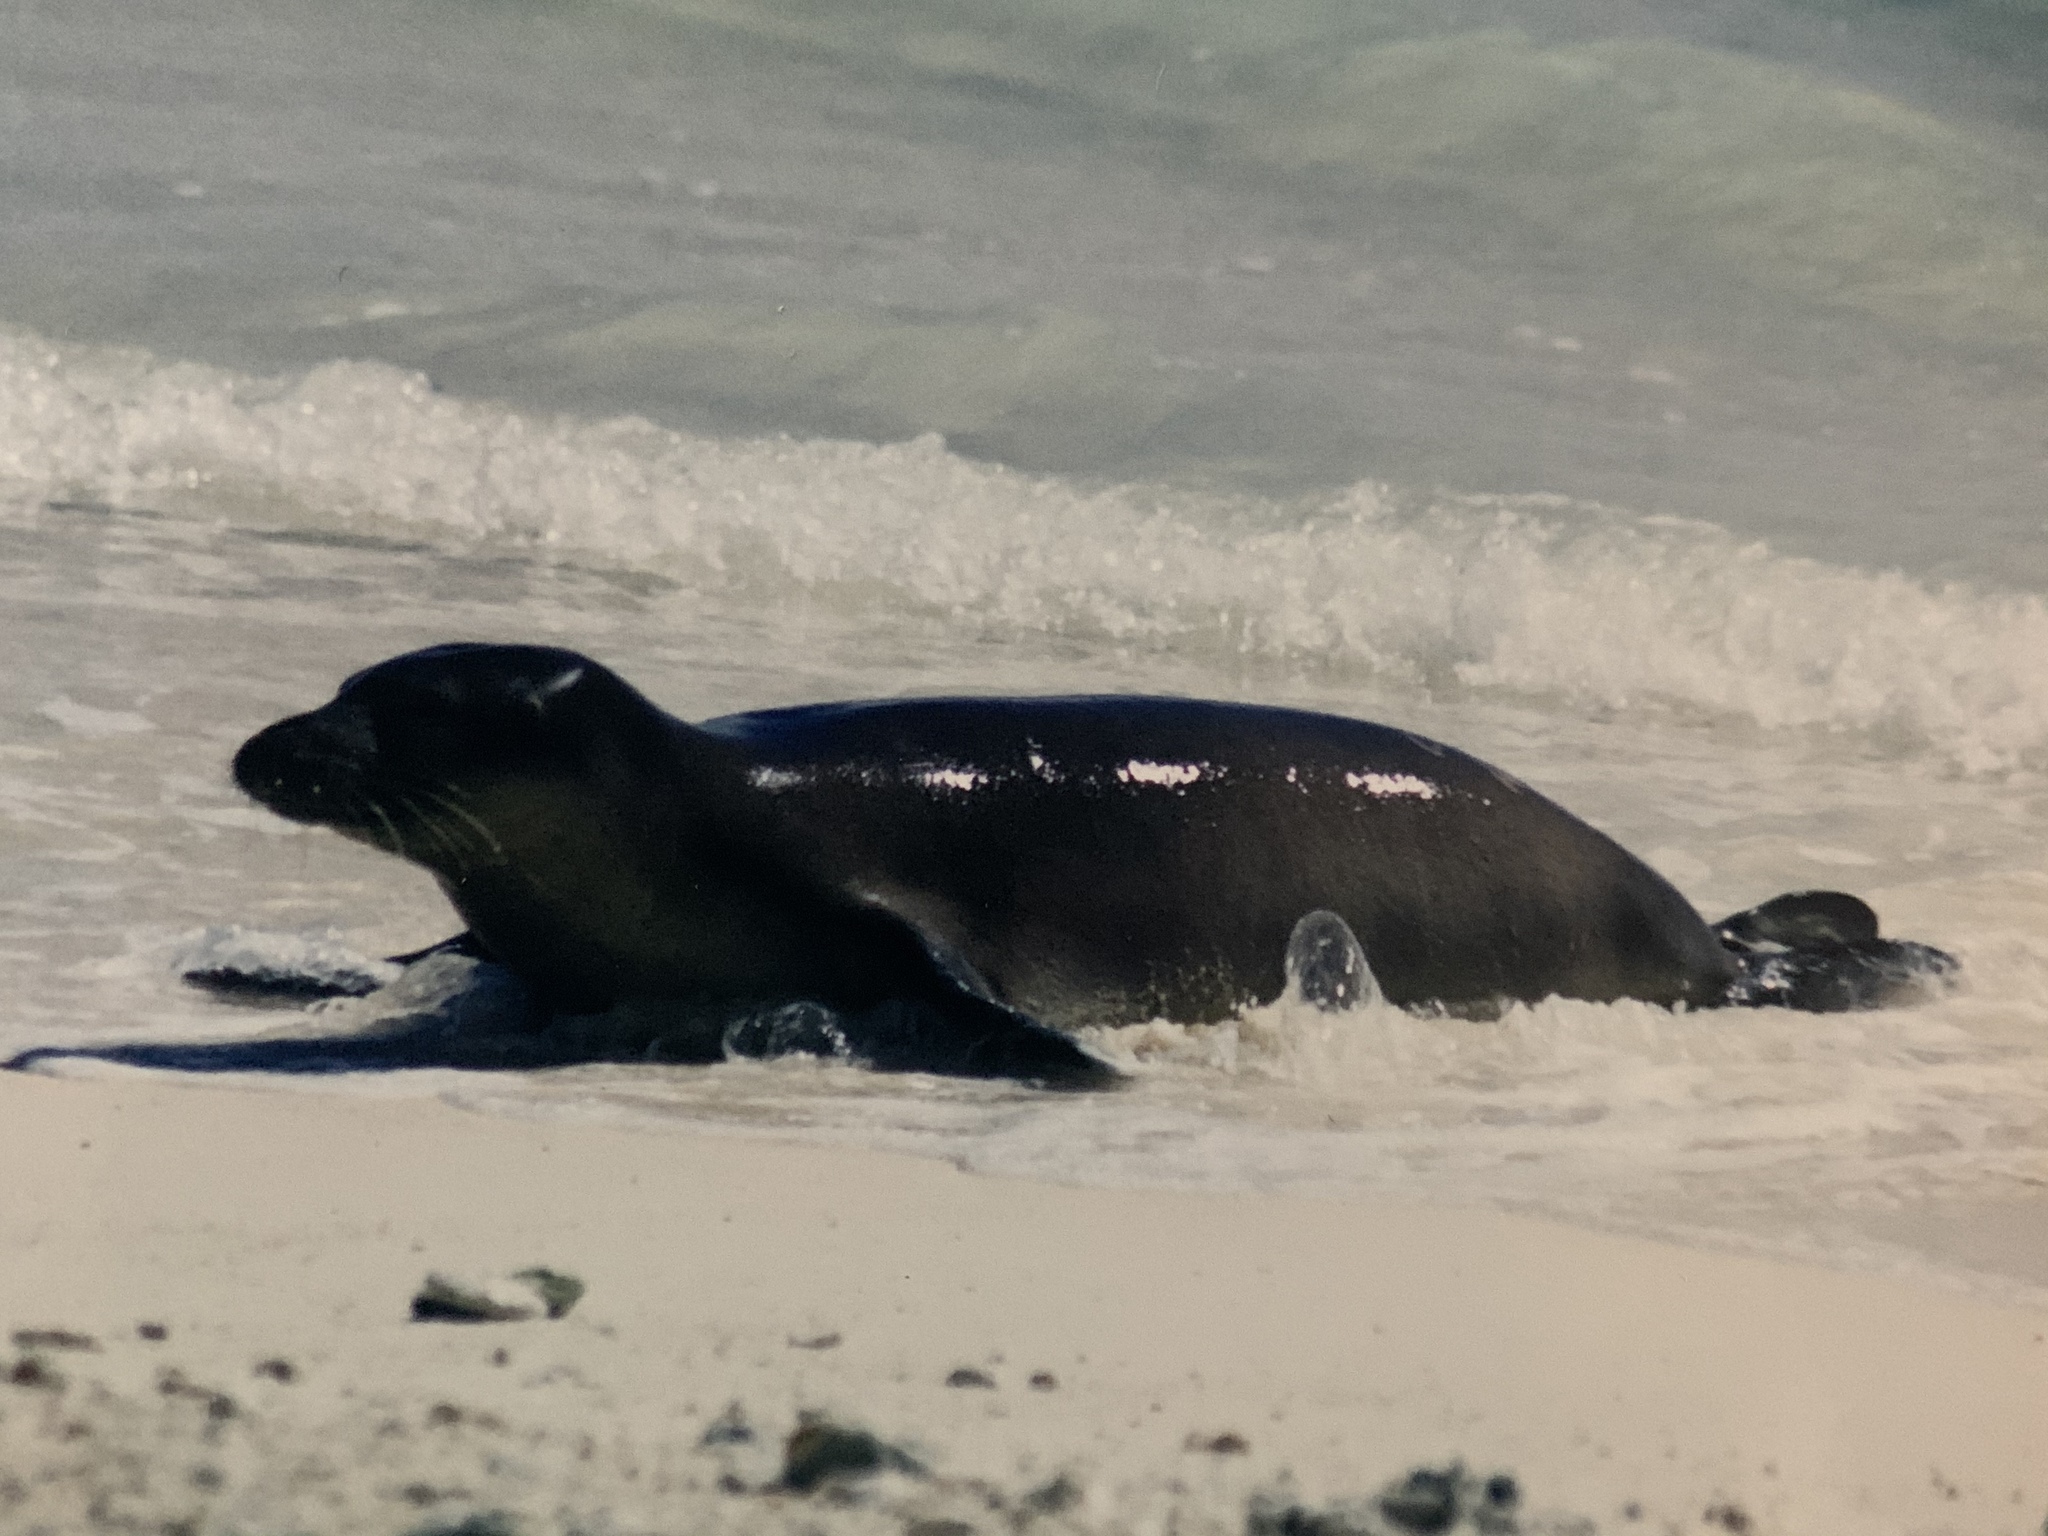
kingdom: Animalia
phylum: Chordata
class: Mammalia
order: Carnivora
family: Phocidae
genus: Neomonachus
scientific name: Neomonachus schauinslandi
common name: Hawaiian monk seal
